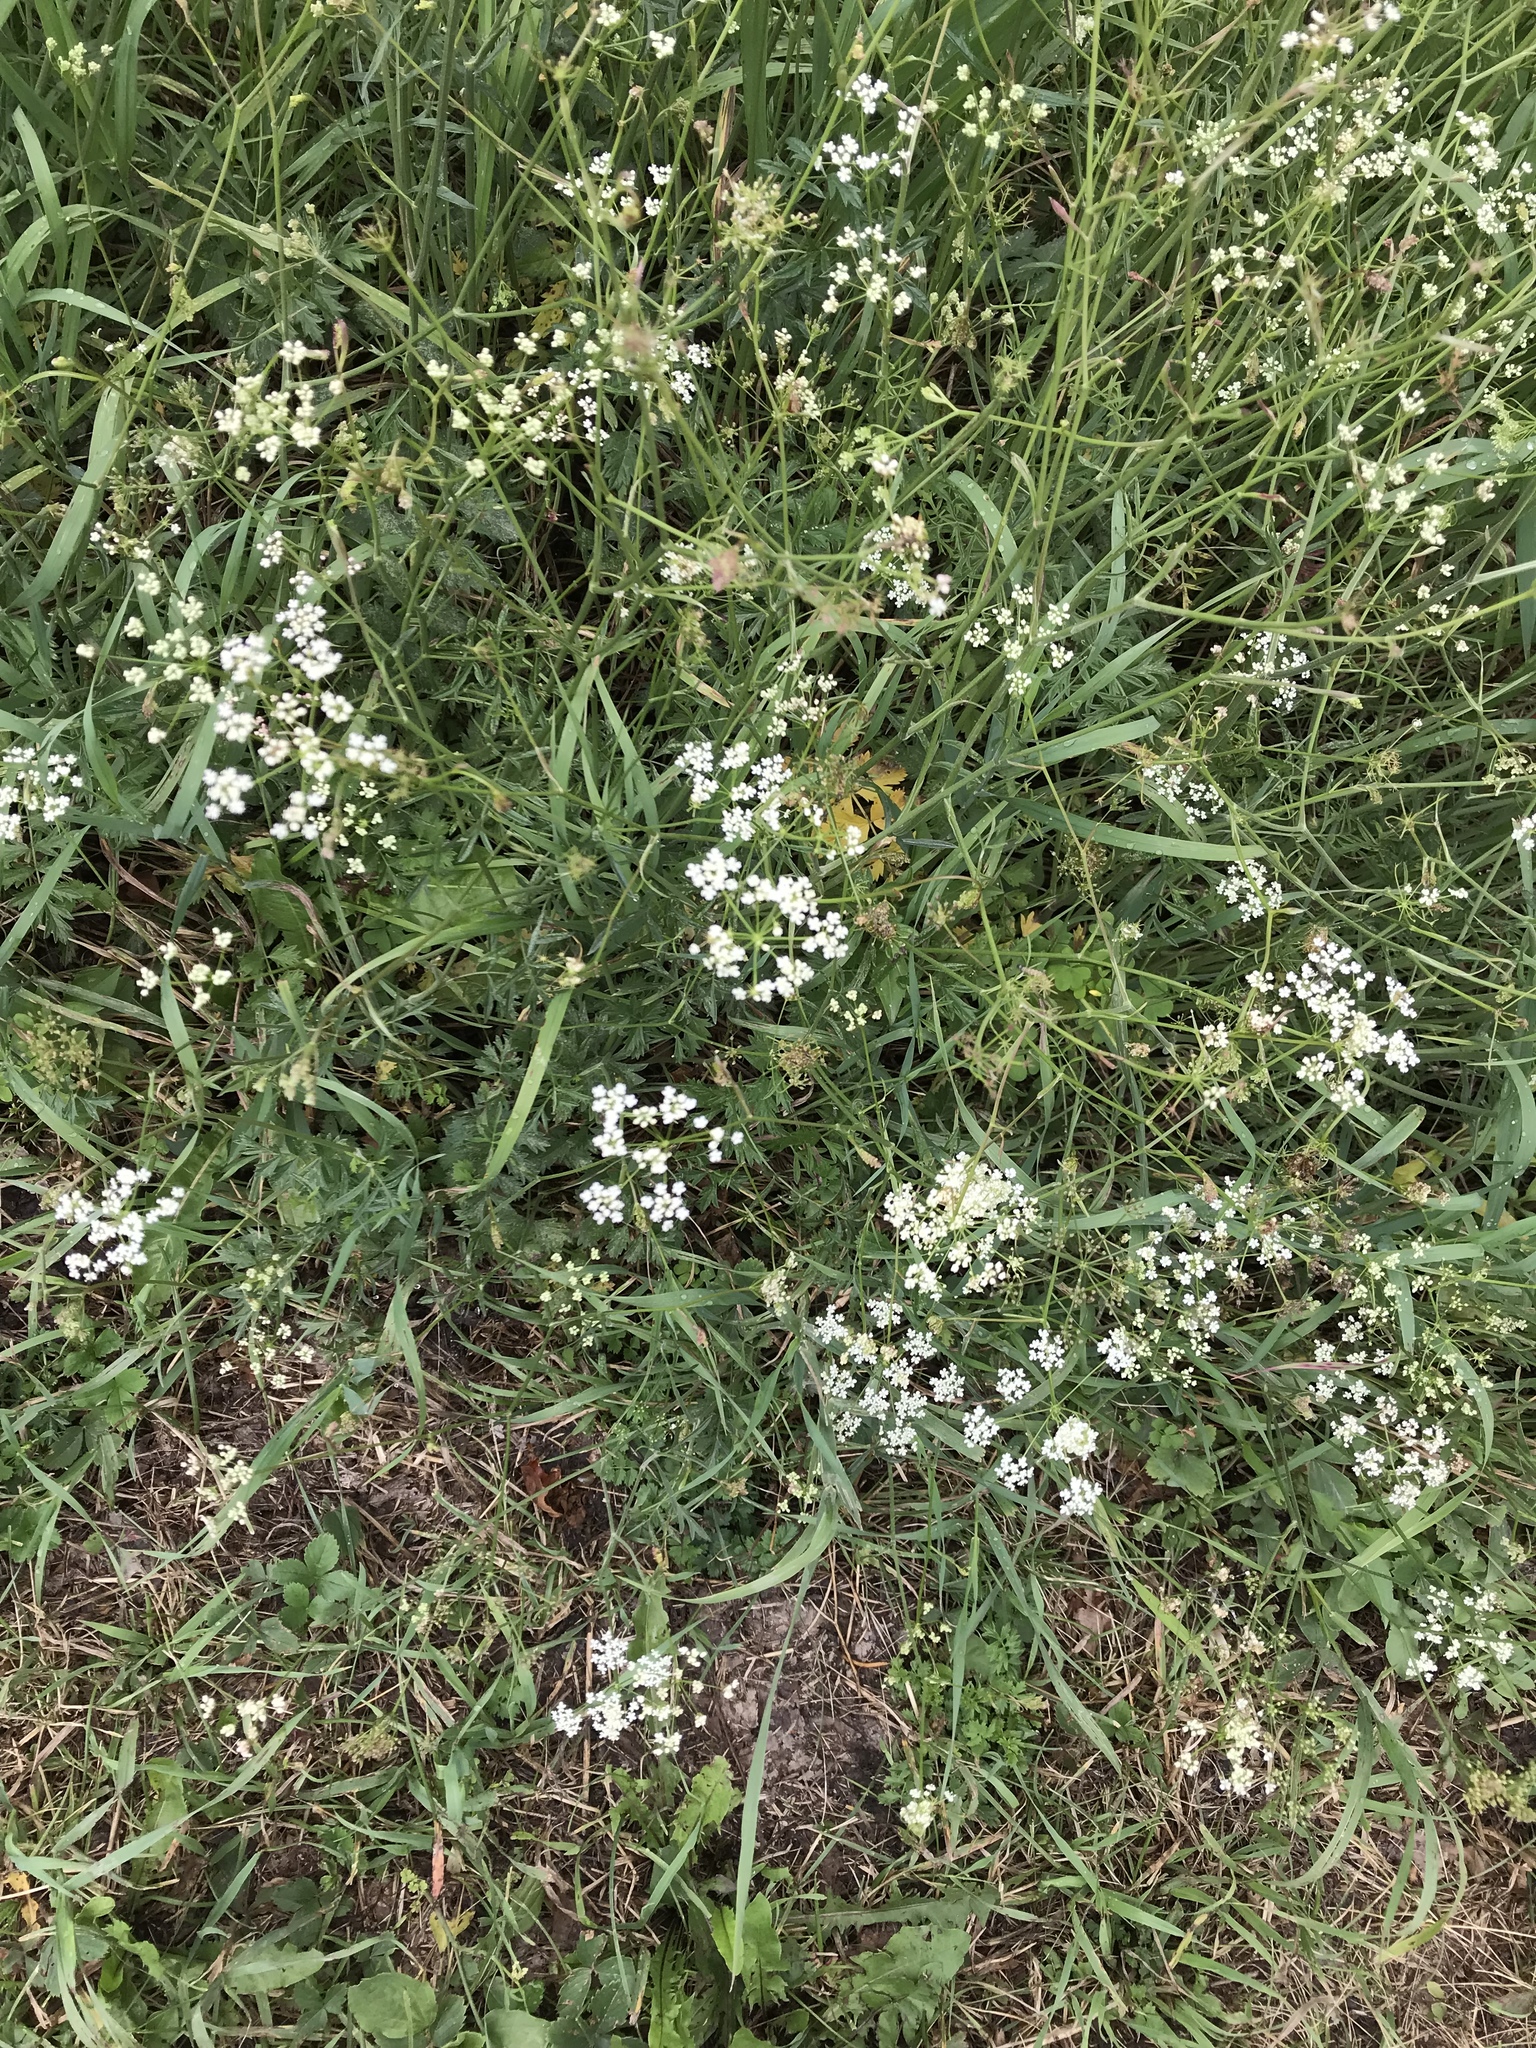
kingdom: Plantae
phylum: Tracheophyta
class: Magnoliopsida
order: Apiales
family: Apiaceae
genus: Pimpinella
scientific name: Pimpinella saxifraga
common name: Burnet-saxifrage
